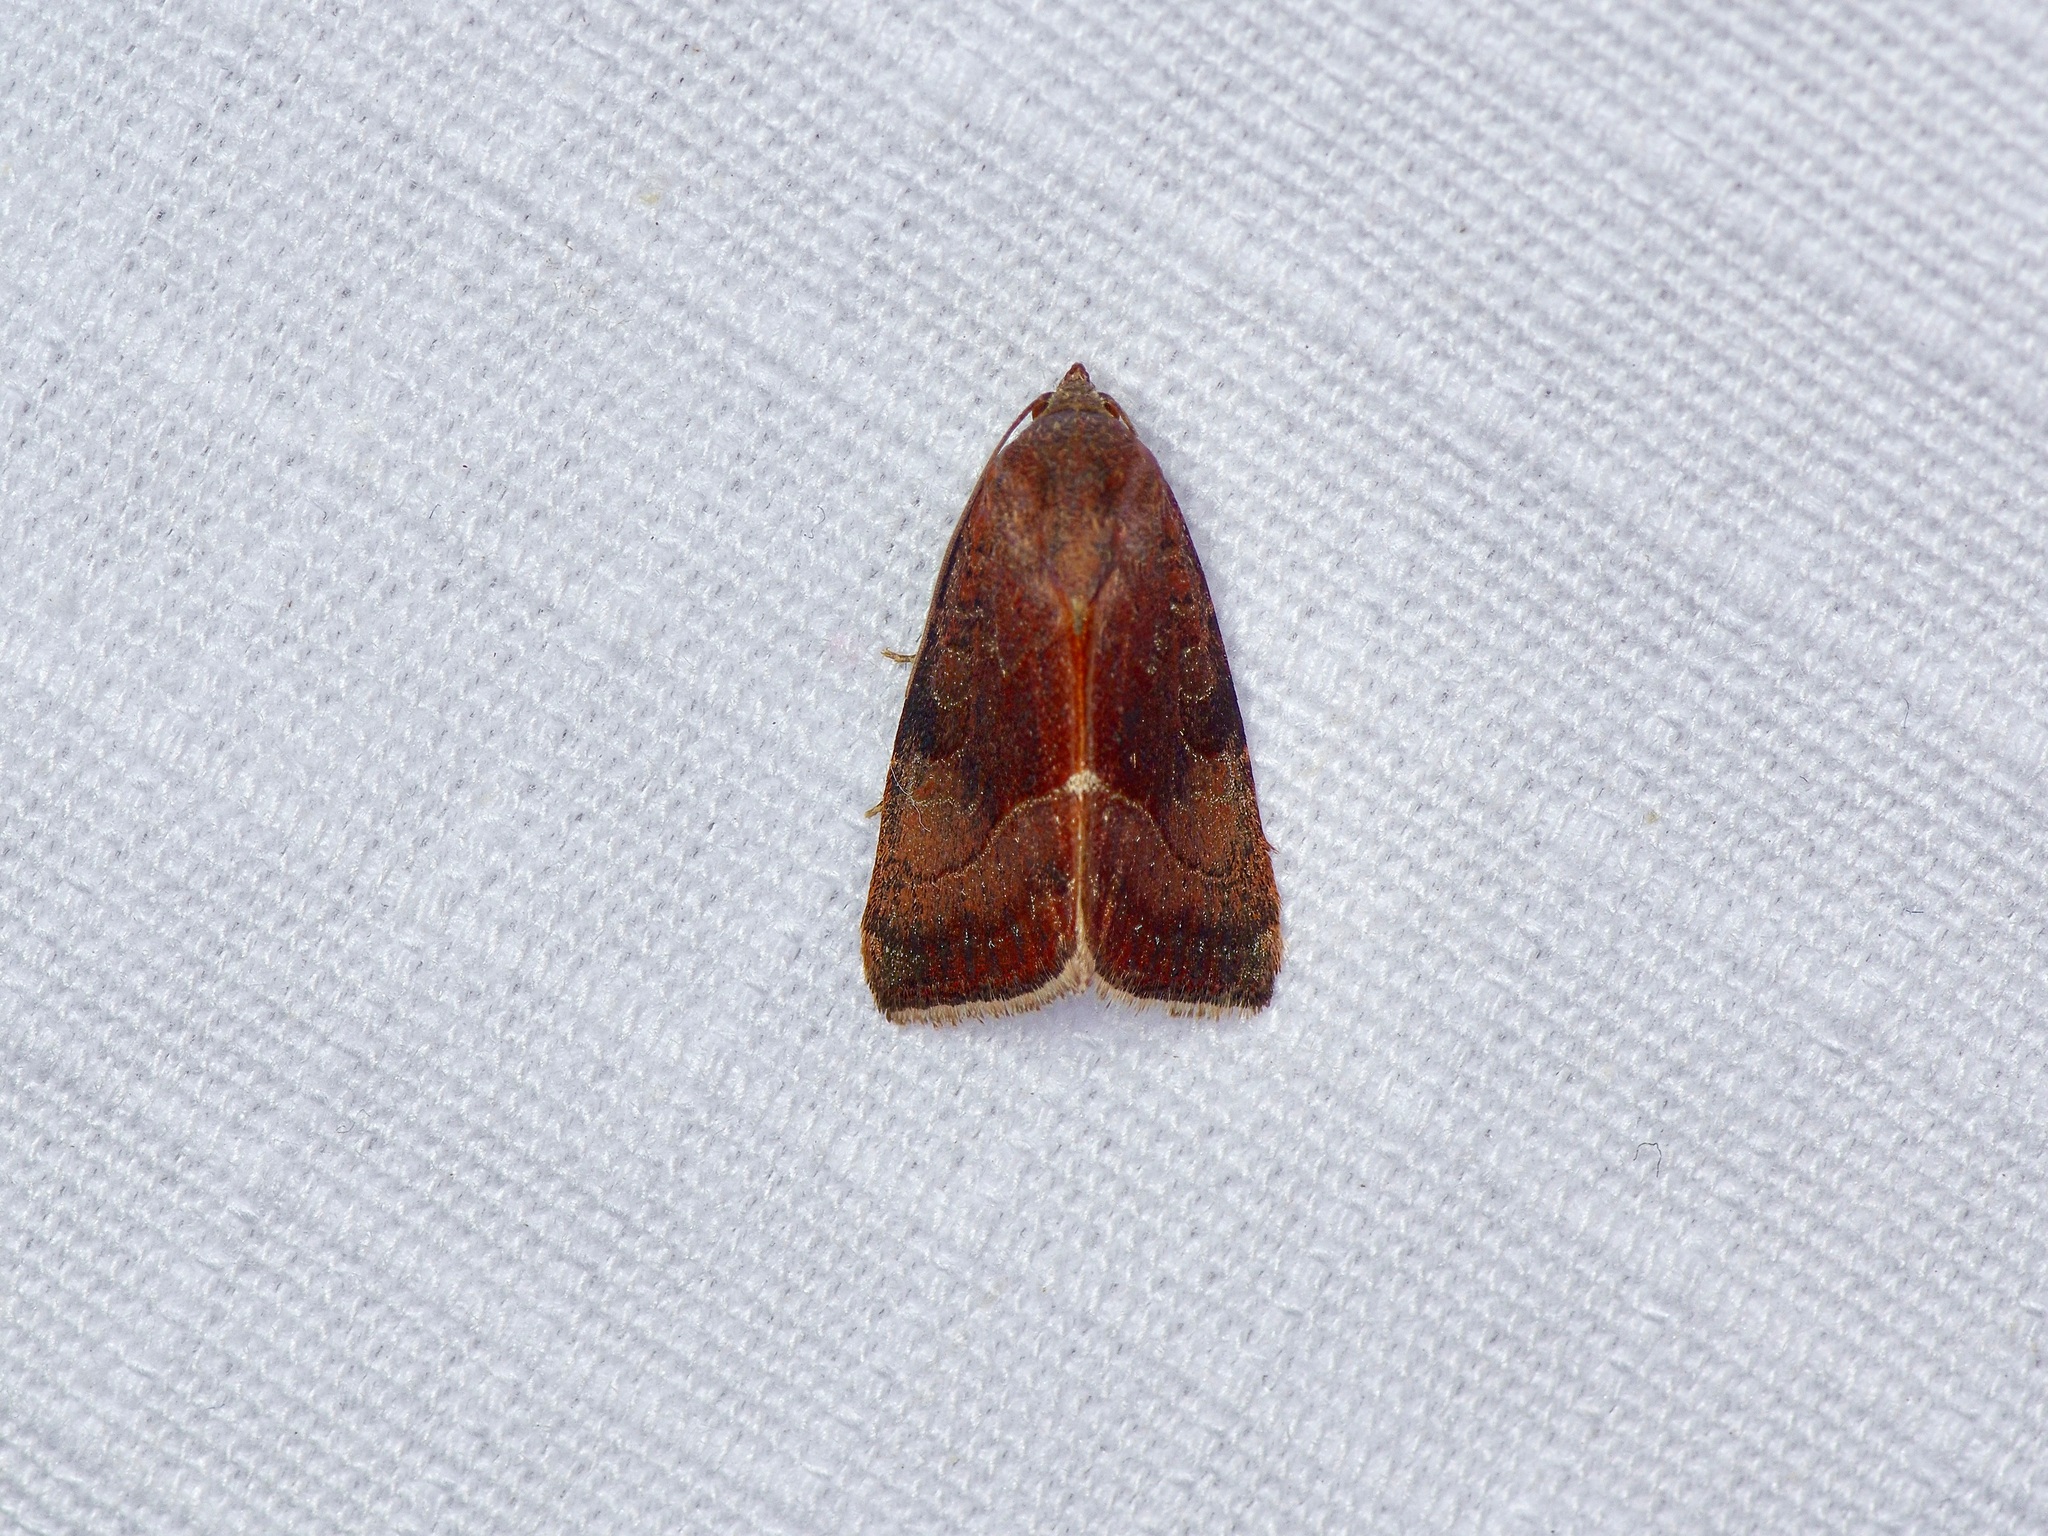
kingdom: Animalia
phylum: Arthropoda
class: Insecta
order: Lepidoptera
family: Noctuidae
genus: Galgula
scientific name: Galgula partita
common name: Wedgeling
